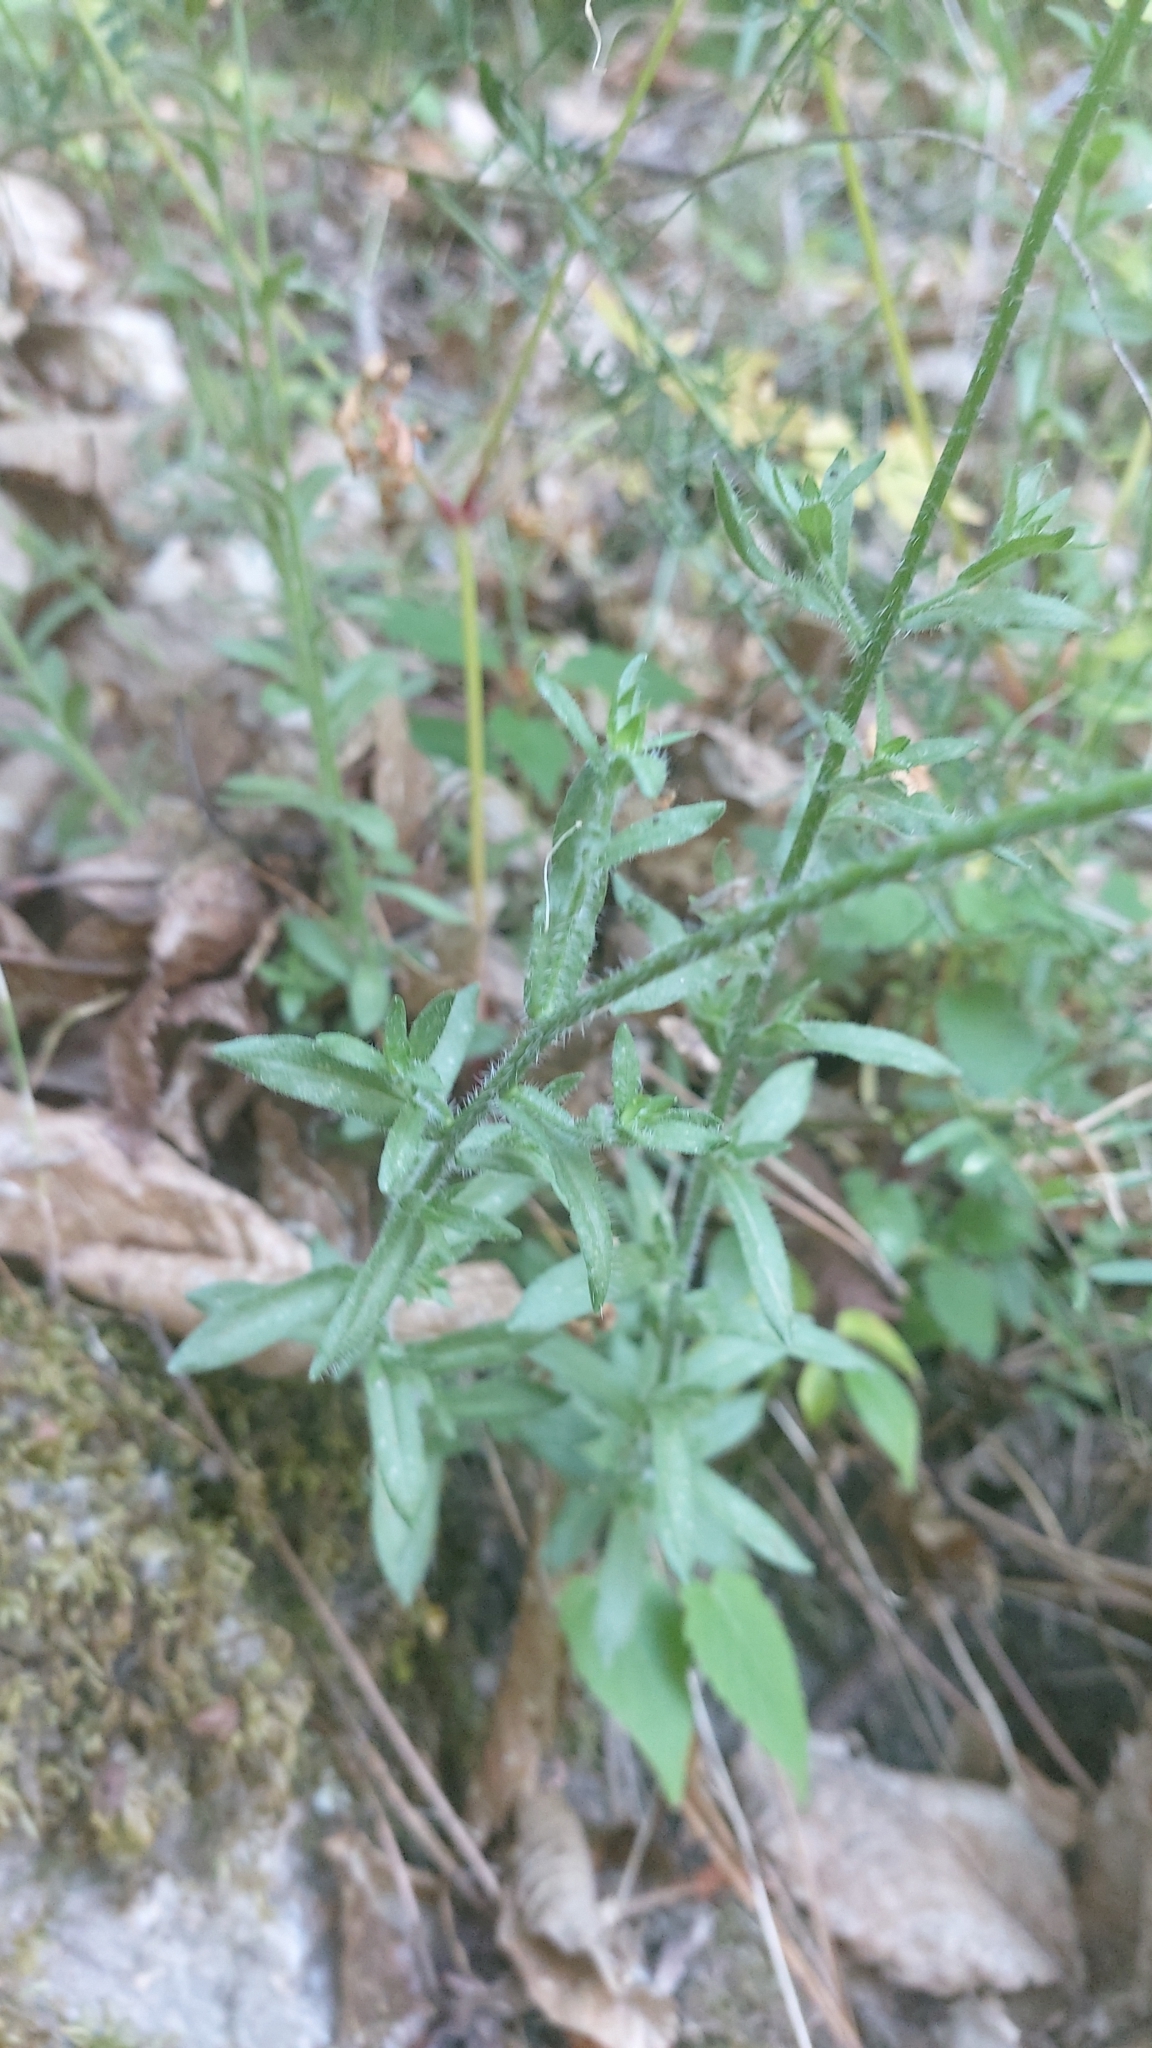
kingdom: Plantae
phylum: Tracheophyta
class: Magnoliopsida
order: Asterales
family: Campanulaceae
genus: Jasione
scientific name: Jasione montana
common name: Sheep's-bit
